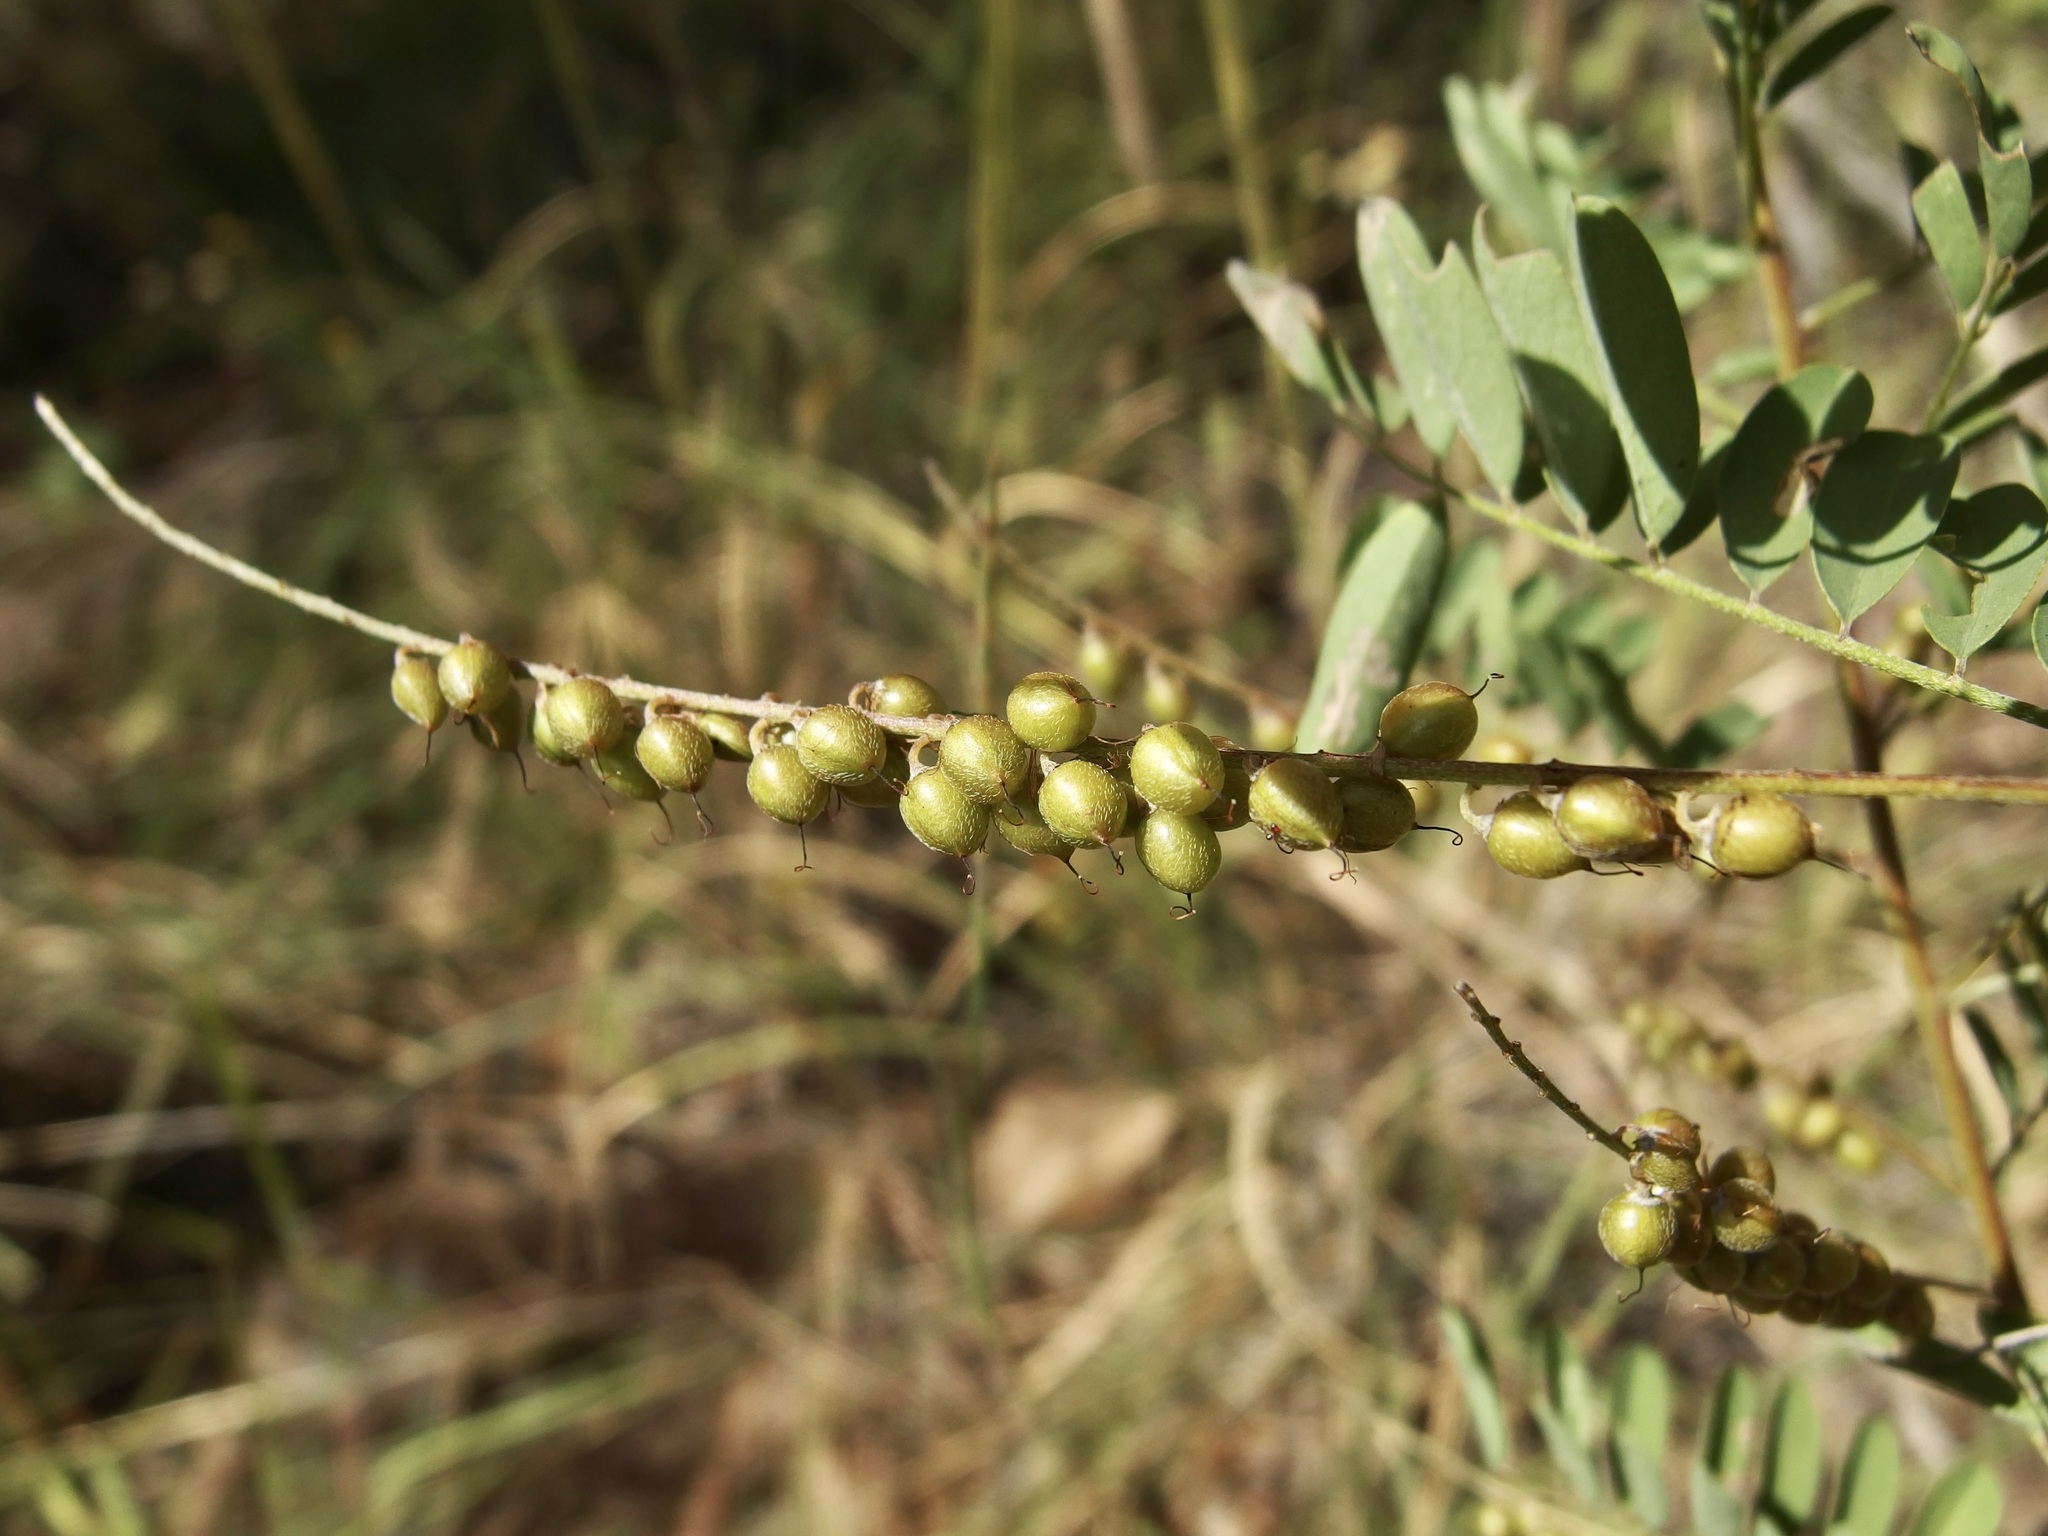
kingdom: Plantae
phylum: Tracheophyta
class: Magnoliopsida
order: Fabales
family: Fabaceae
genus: Indigofera
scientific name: Indigofera sphaerocarpa
